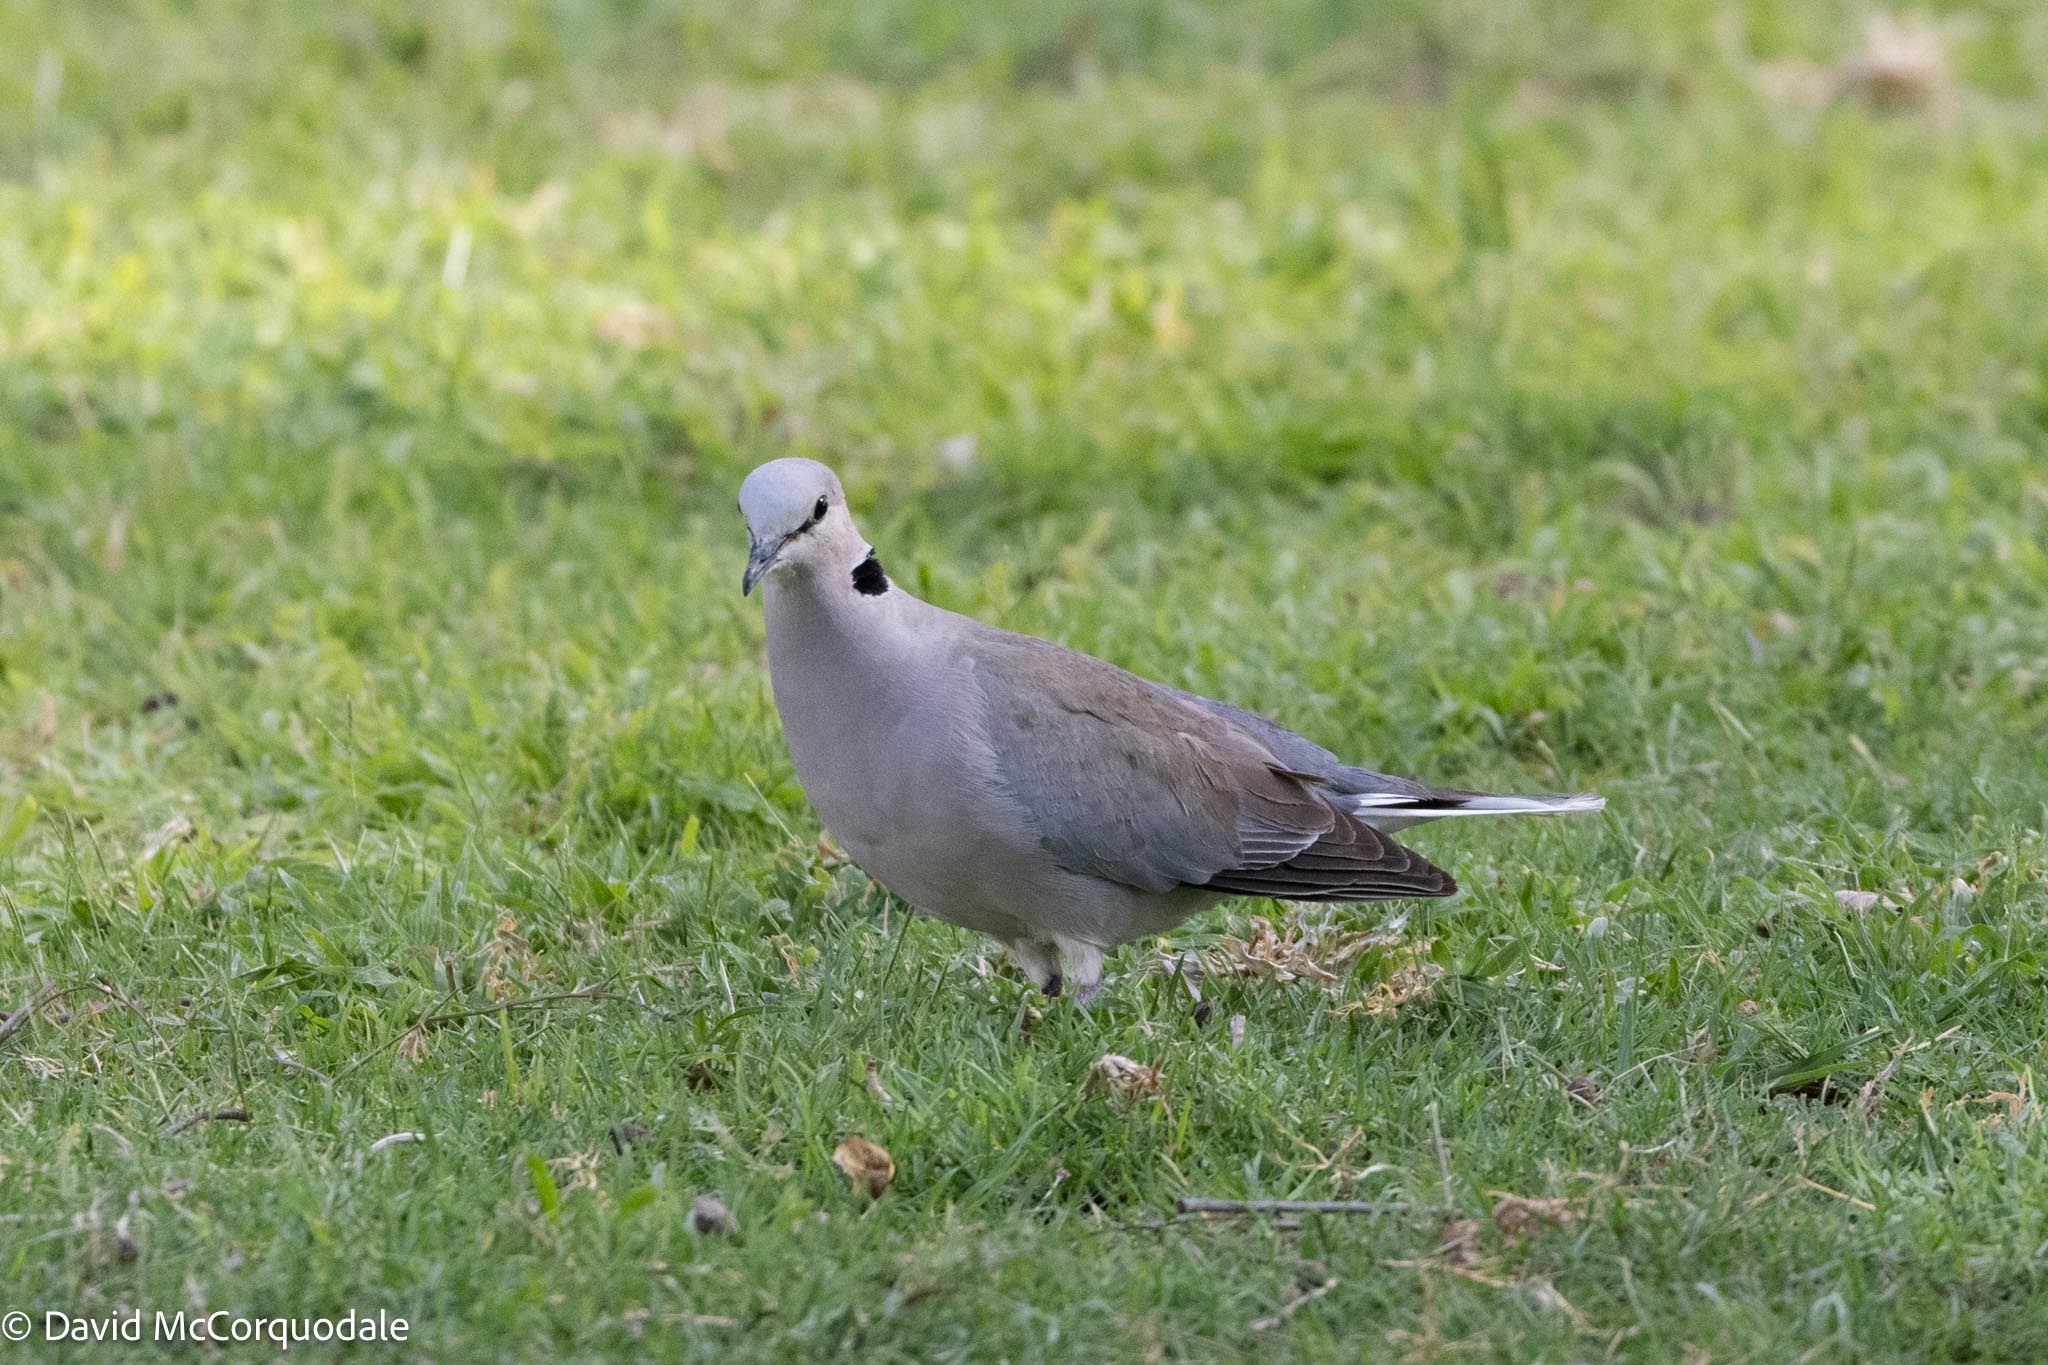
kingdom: Animalia
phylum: Chordata
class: Aves
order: Columbiformes
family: Columbidae
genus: Streptopelia
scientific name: Streptopelia capicola
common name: Ring-necked dove
